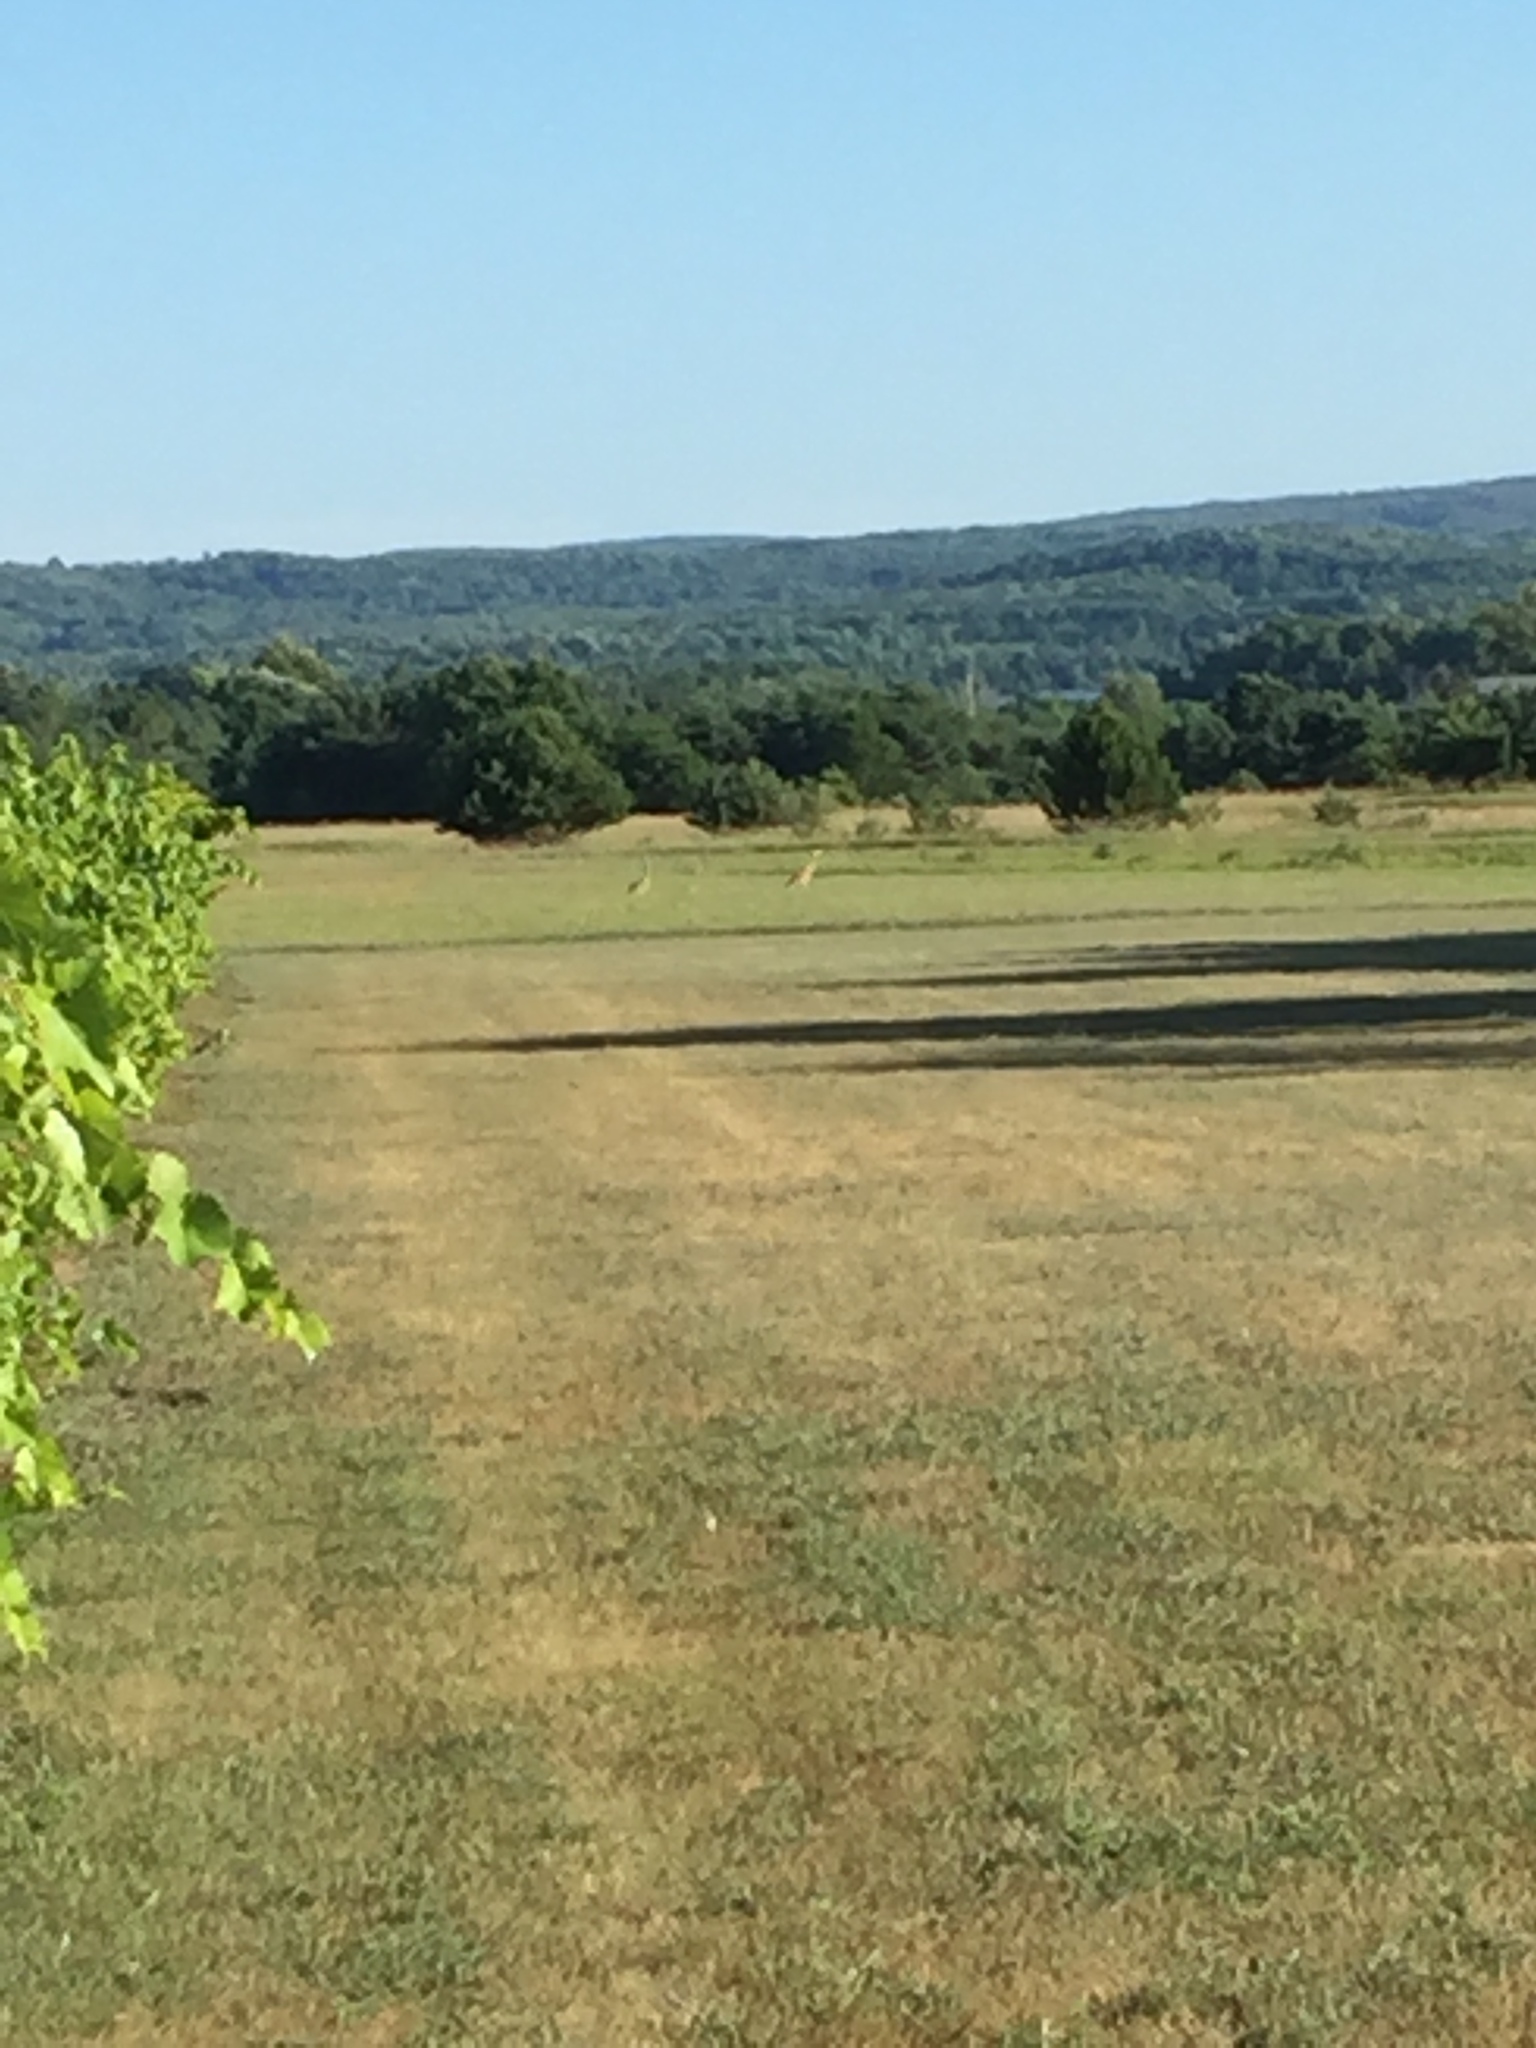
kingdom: Animalia
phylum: Chordata
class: Aves
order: Gruiformes
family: Gruidae
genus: Grus
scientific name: Grus canadensis
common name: Sandhill crane
